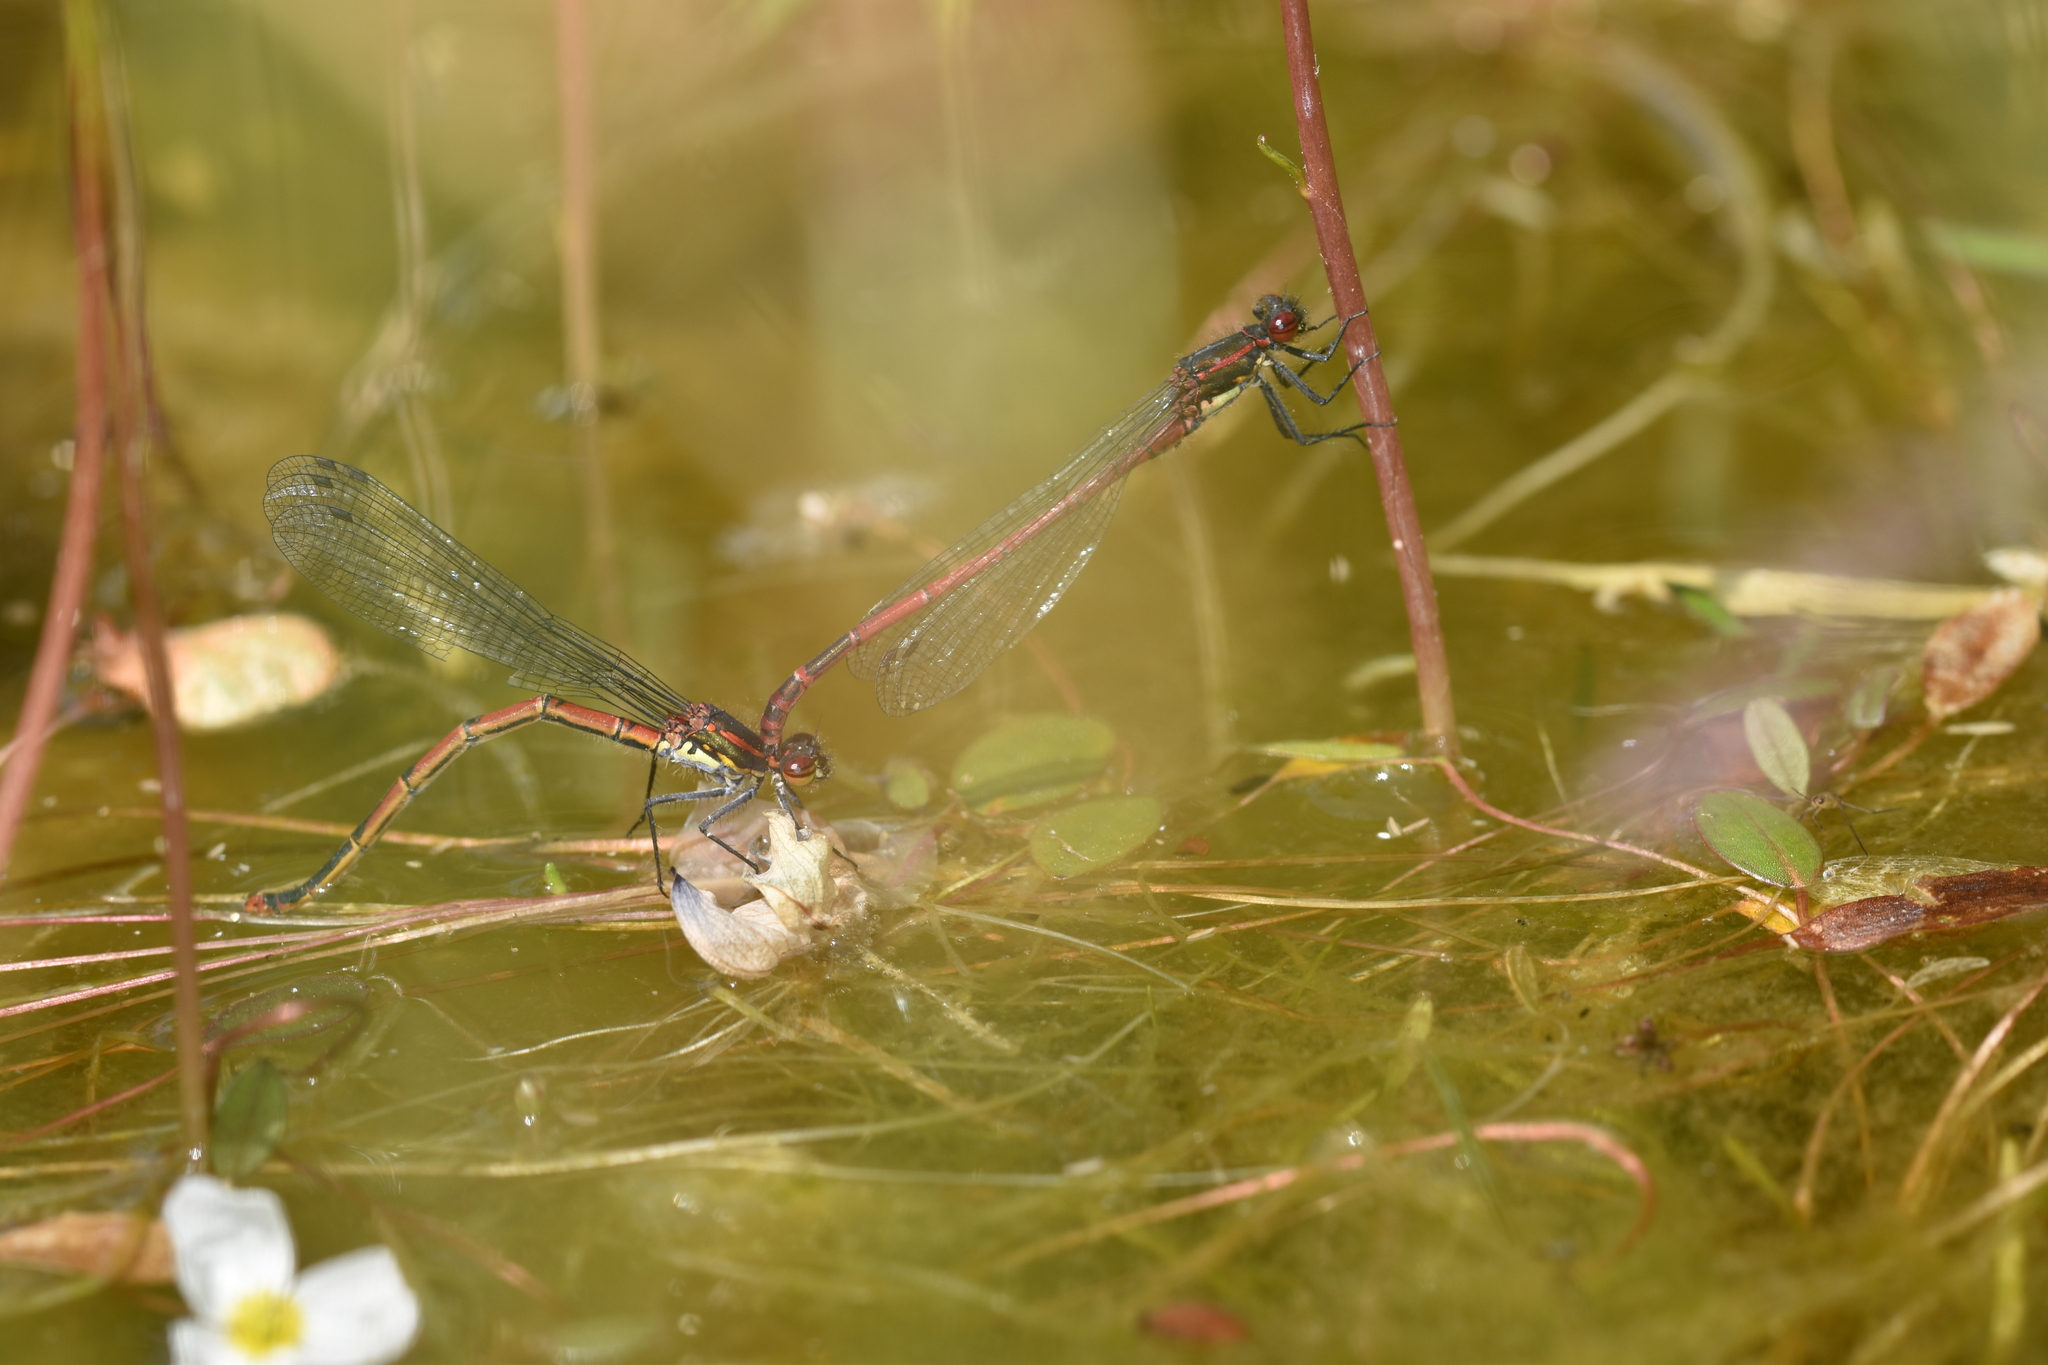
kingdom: Animalia
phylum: Arthropoda
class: Insecta
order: Odonata
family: Coenagrionidae
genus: Pyrrhosoma
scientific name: Pyrrhosoma nymphula
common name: Large red damsel
